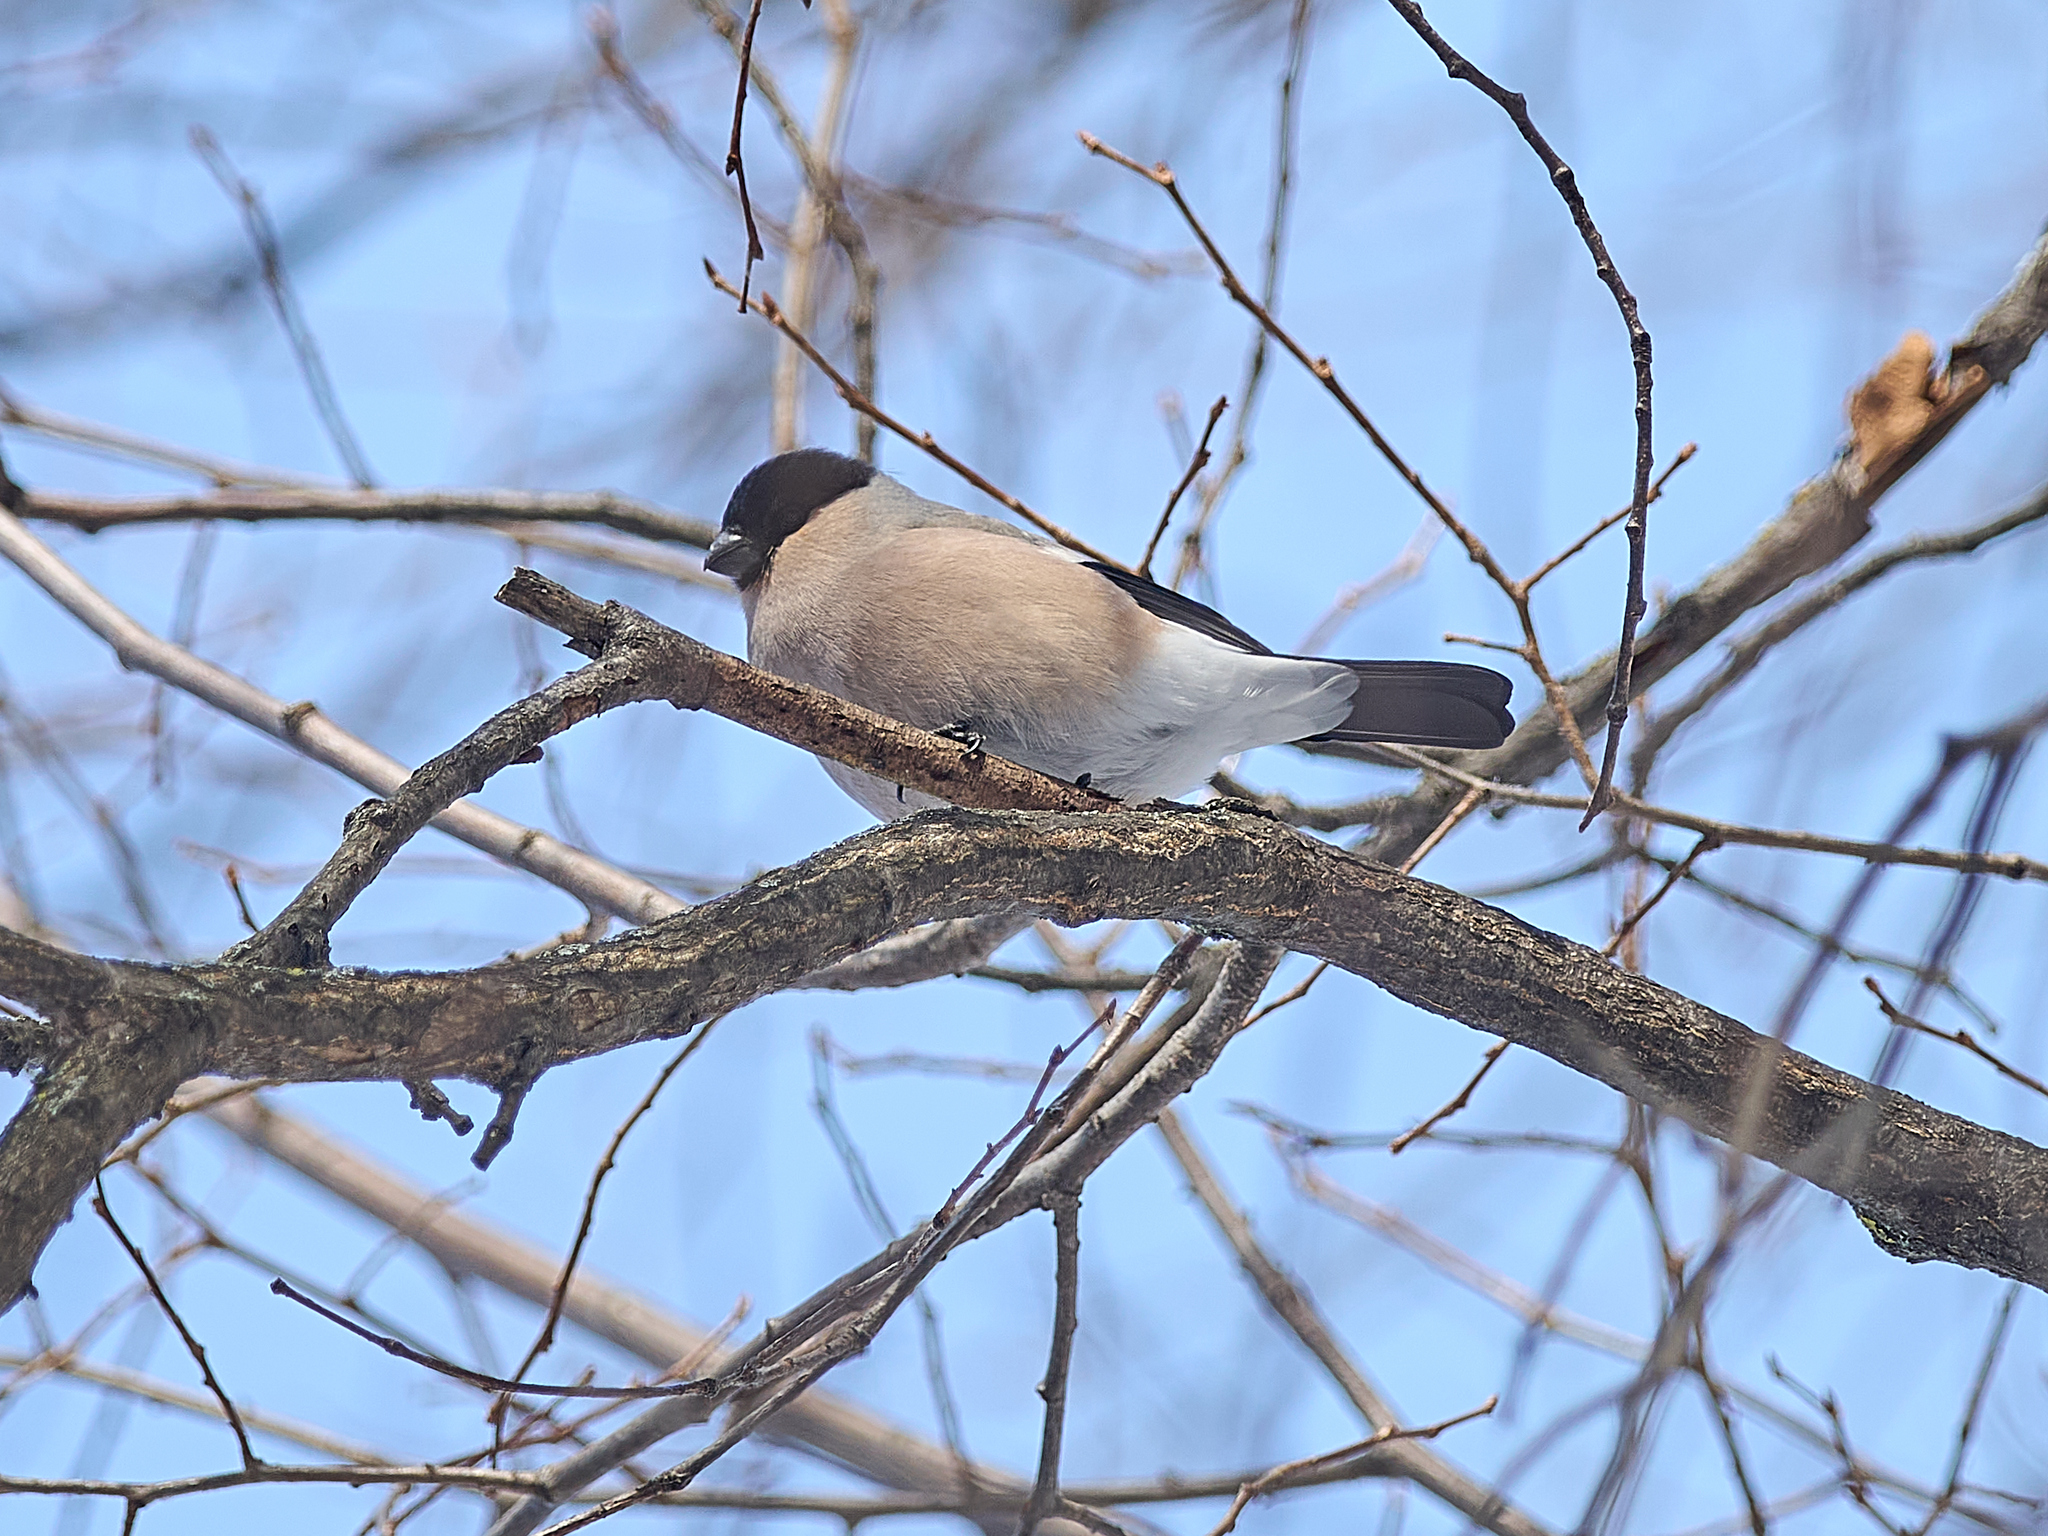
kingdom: Animalia
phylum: Chordata
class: Aves
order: Passeriformes
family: Fringillidae
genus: Pyrrhula
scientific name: Pyrrhula pyrrhula
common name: Eurasian bullfinch
